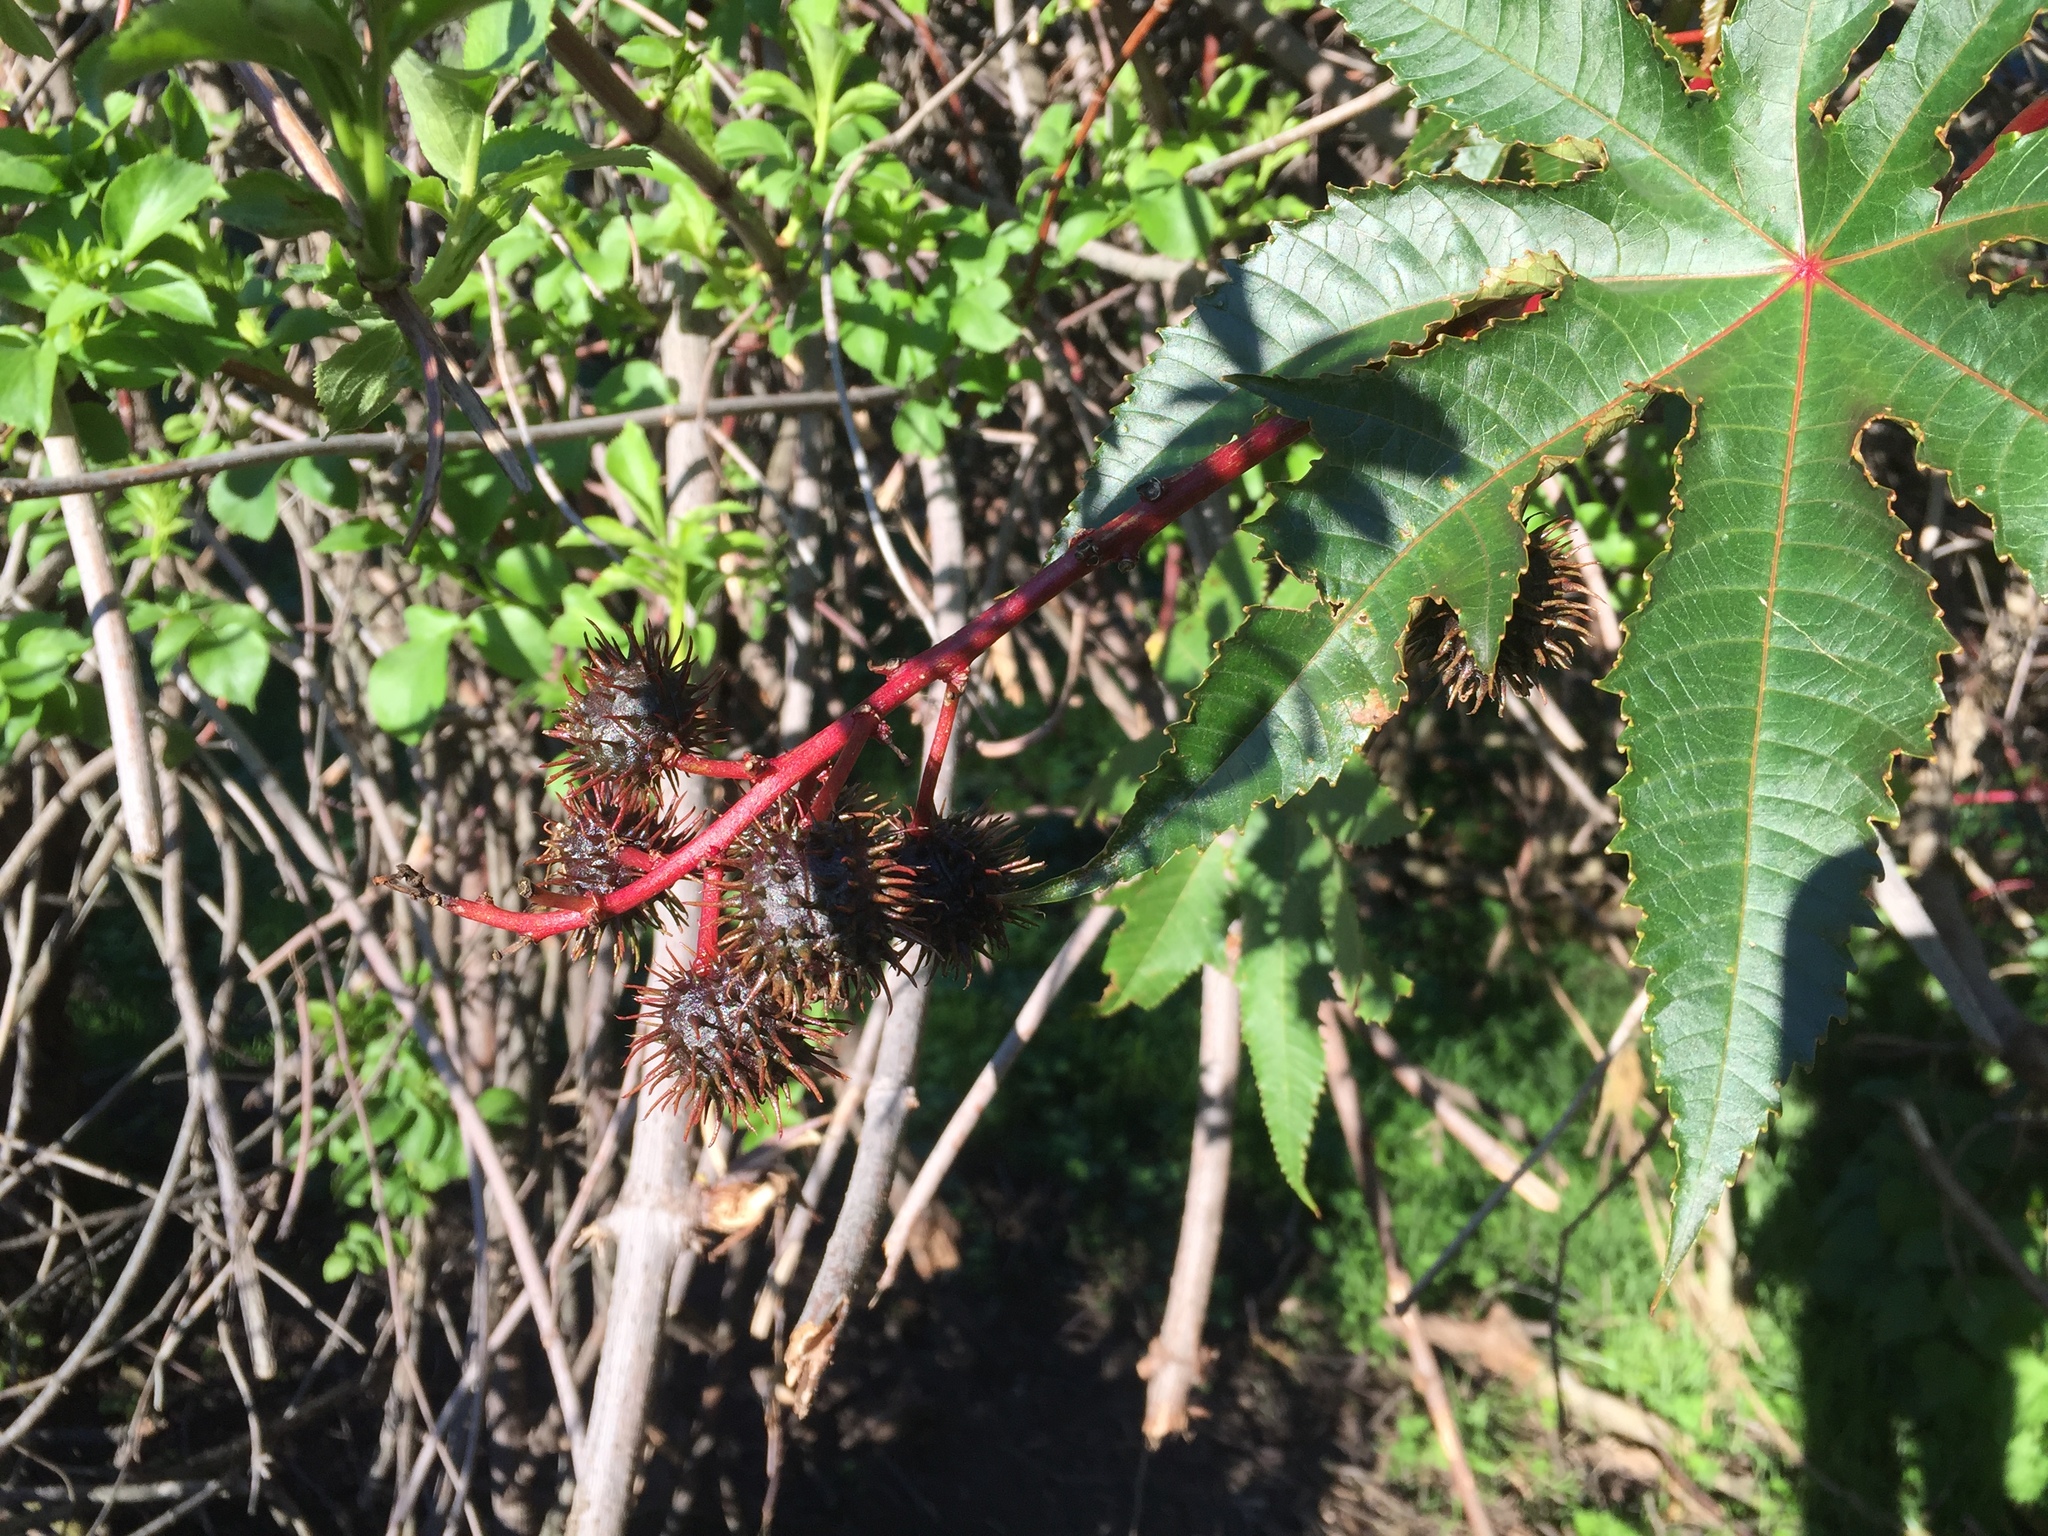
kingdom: Plantae
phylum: Tracheophyta
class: Magnoliopsida
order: Malpighiales
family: Euphorbiaceae
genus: Ricinus
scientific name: Ricinus communis
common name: Castor-oil-plant
